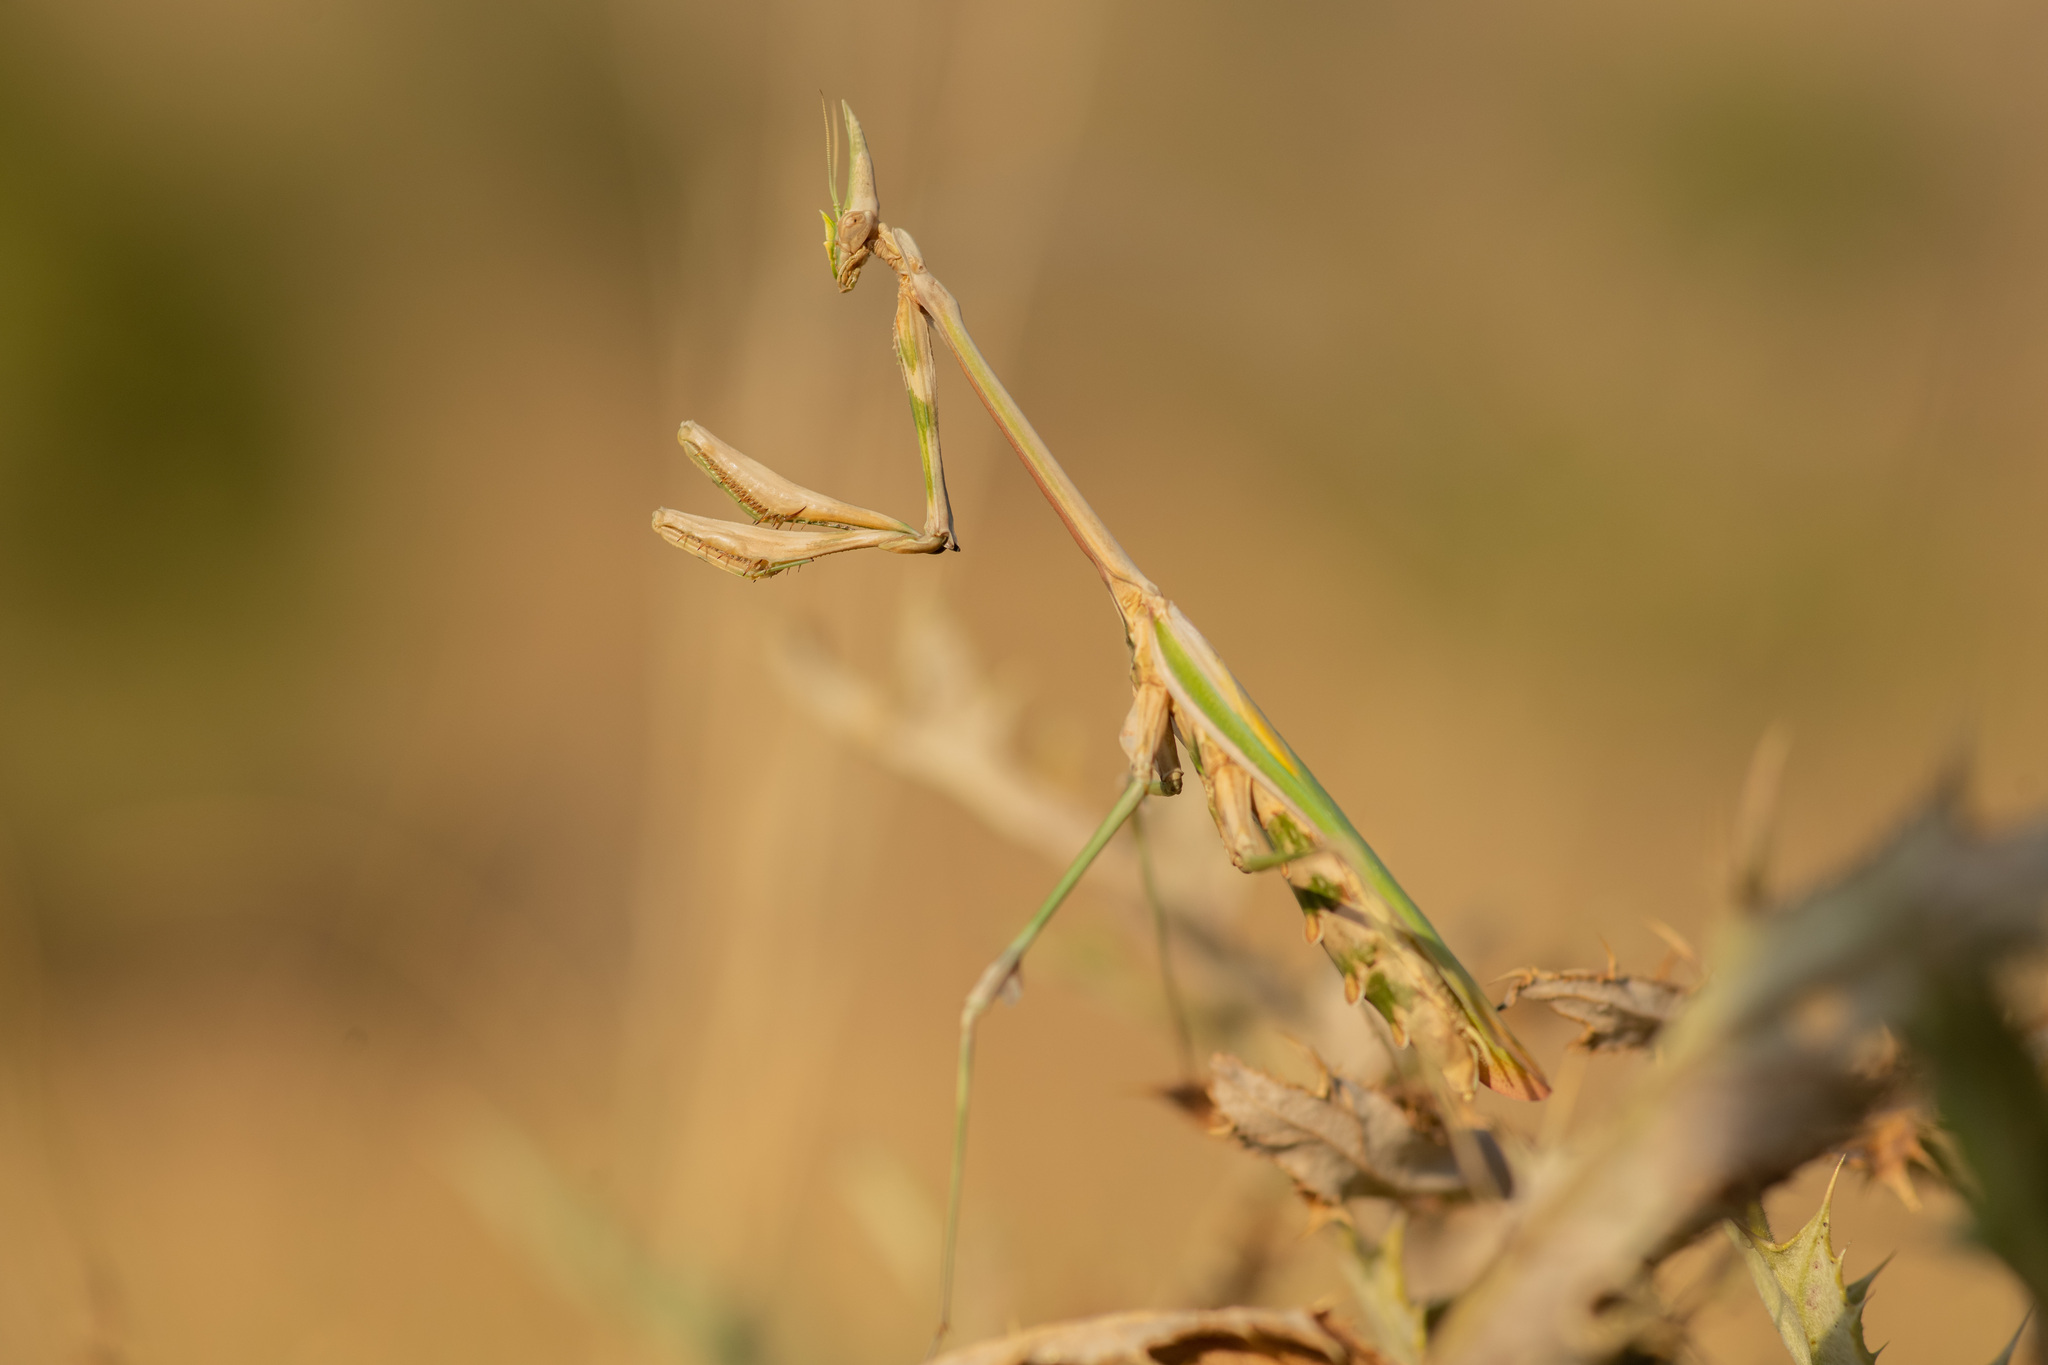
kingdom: Animalia
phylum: Arthropoda
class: Insecta
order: Mantodea
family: Empusidae
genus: Empusa
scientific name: Empusa pennicornis
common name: Conehead mantis
